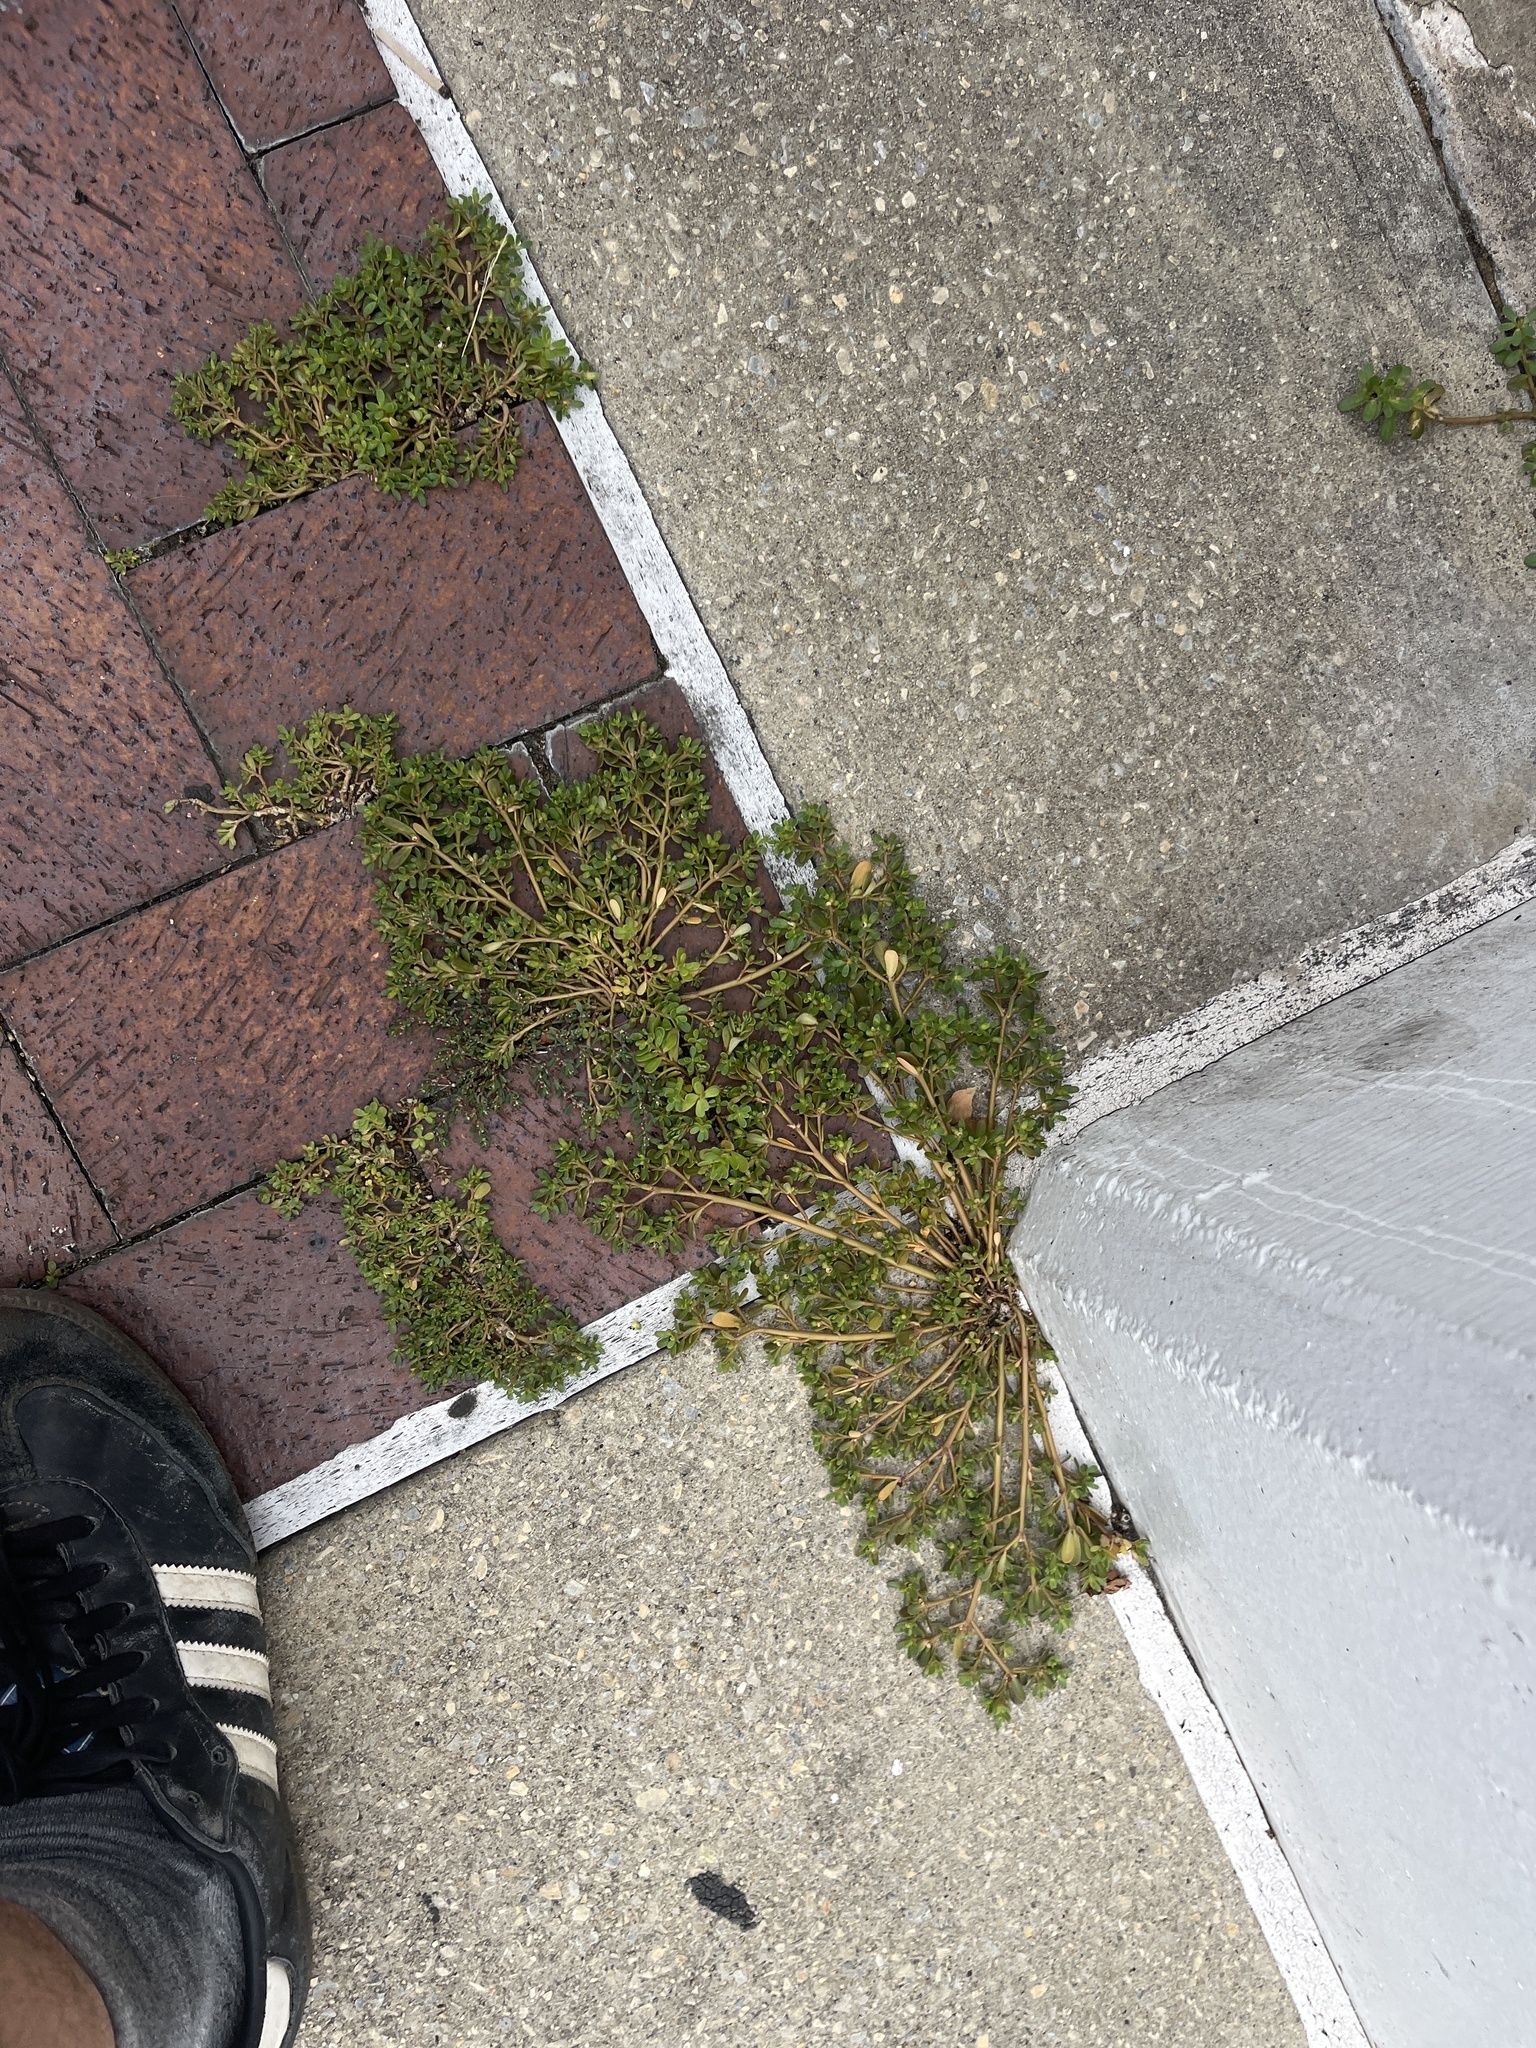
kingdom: Plantae
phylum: Tracheophyta
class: Magnoliopsida
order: Caryophyllales
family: Portulacaceae
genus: Portulaca
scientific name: Portulaca oleracea
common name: Common purslane
